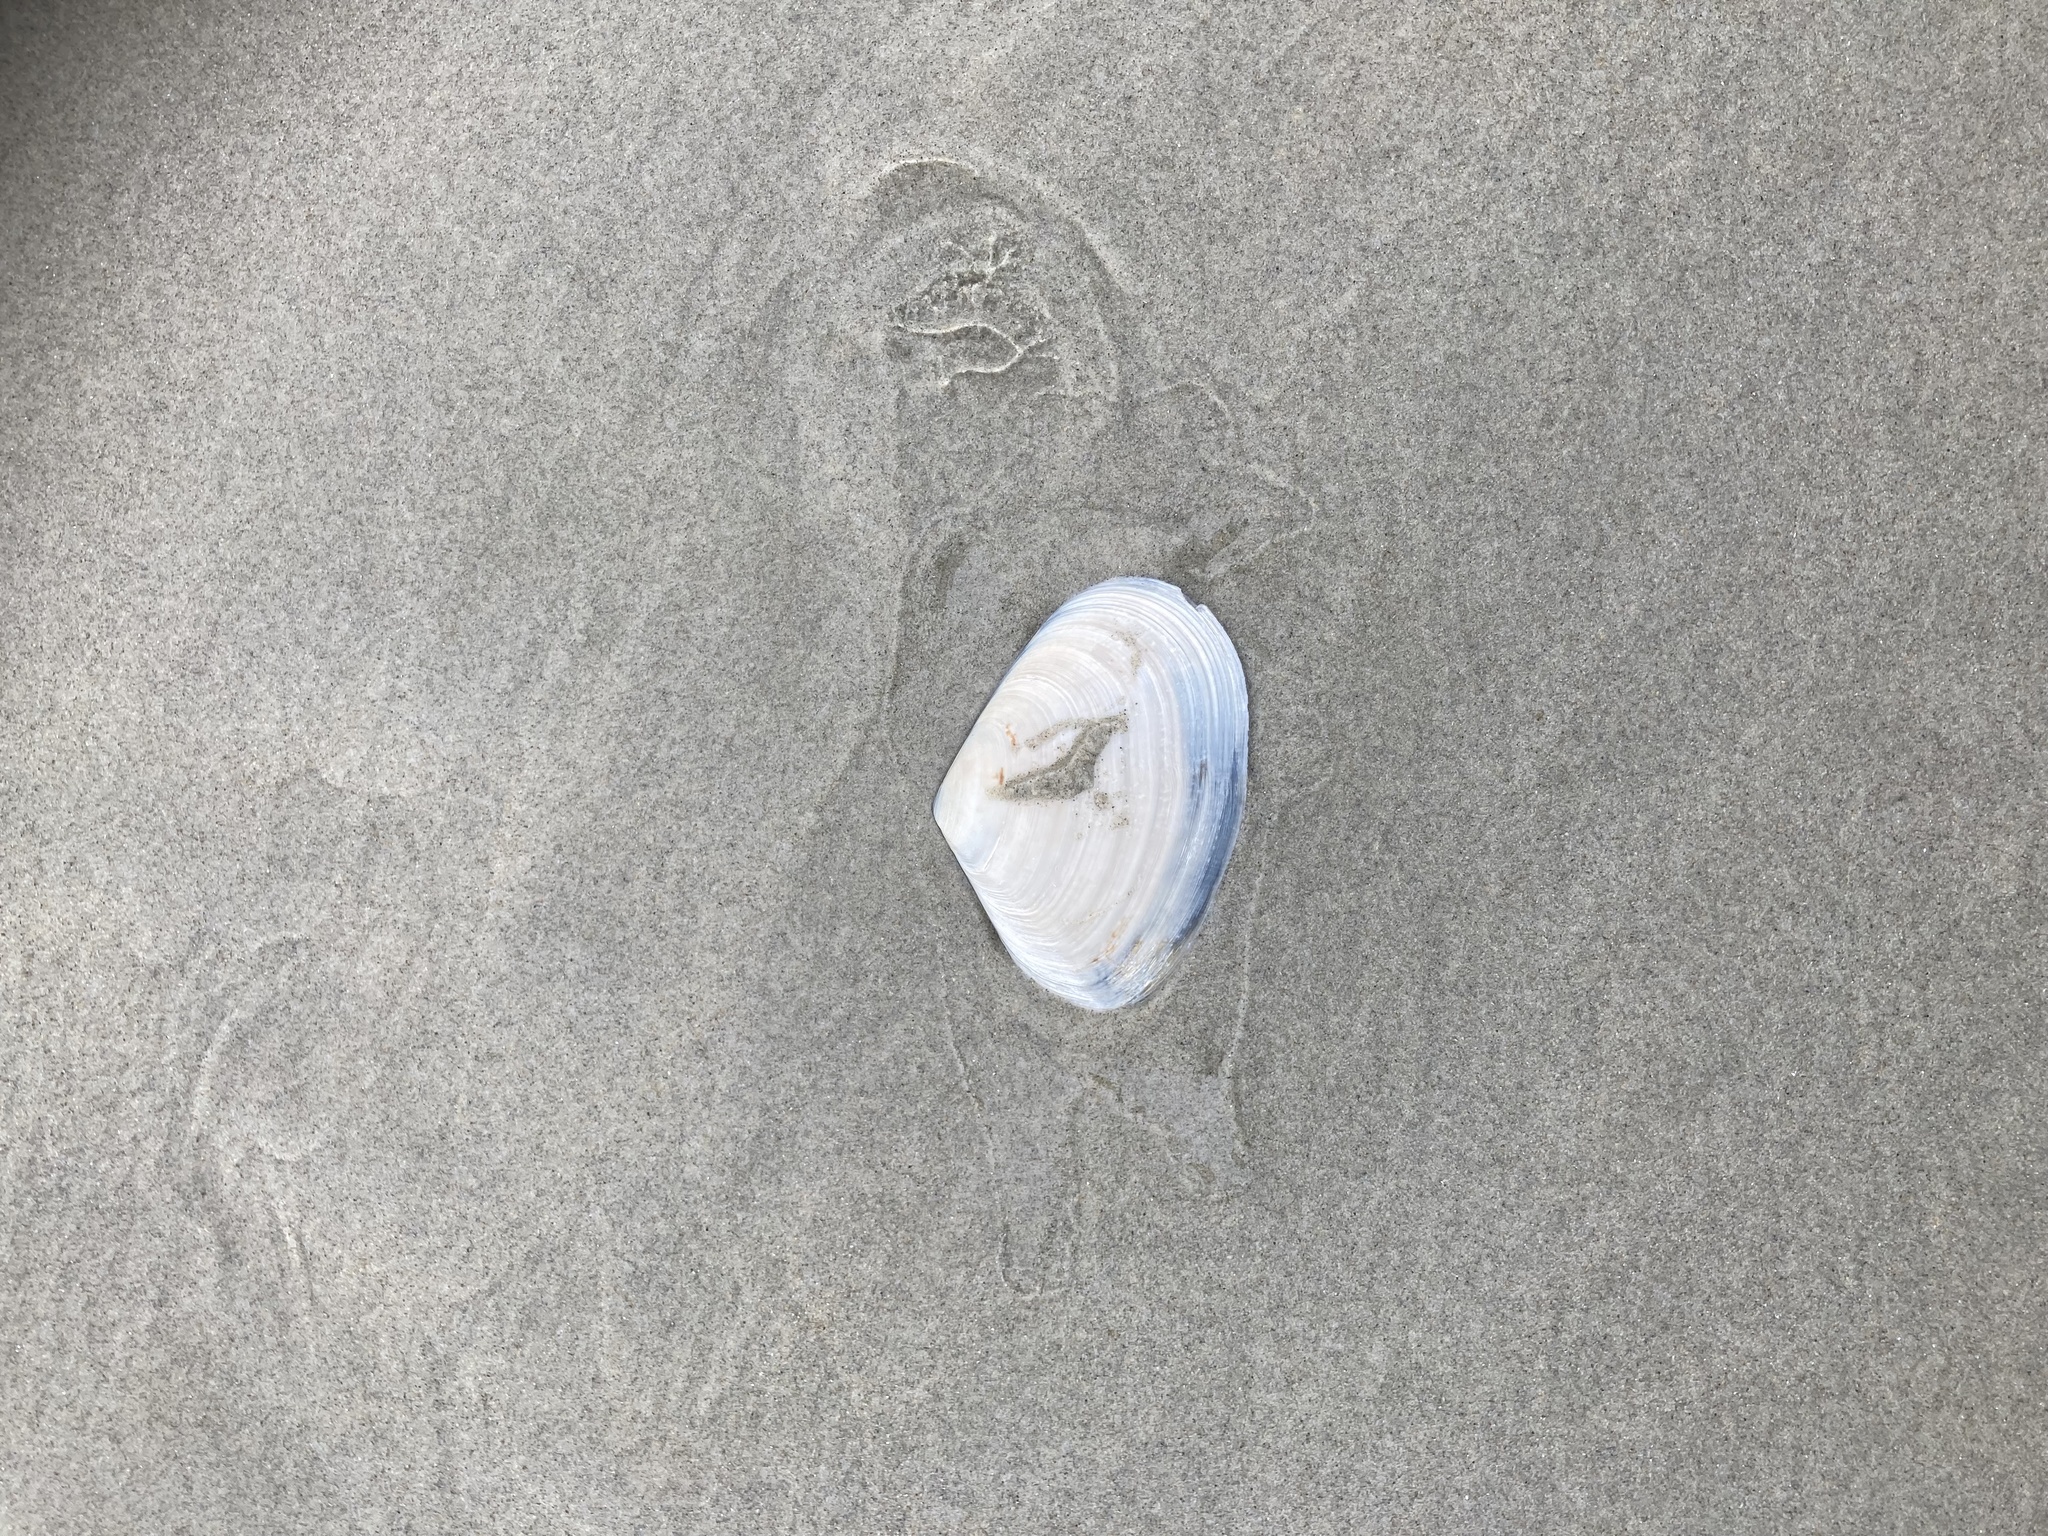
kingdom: Animalia
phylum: Mollusca
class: Bivalvia
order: Venerida
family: Mesodesmatidae
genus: Paphies
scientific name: Paphies donacina
